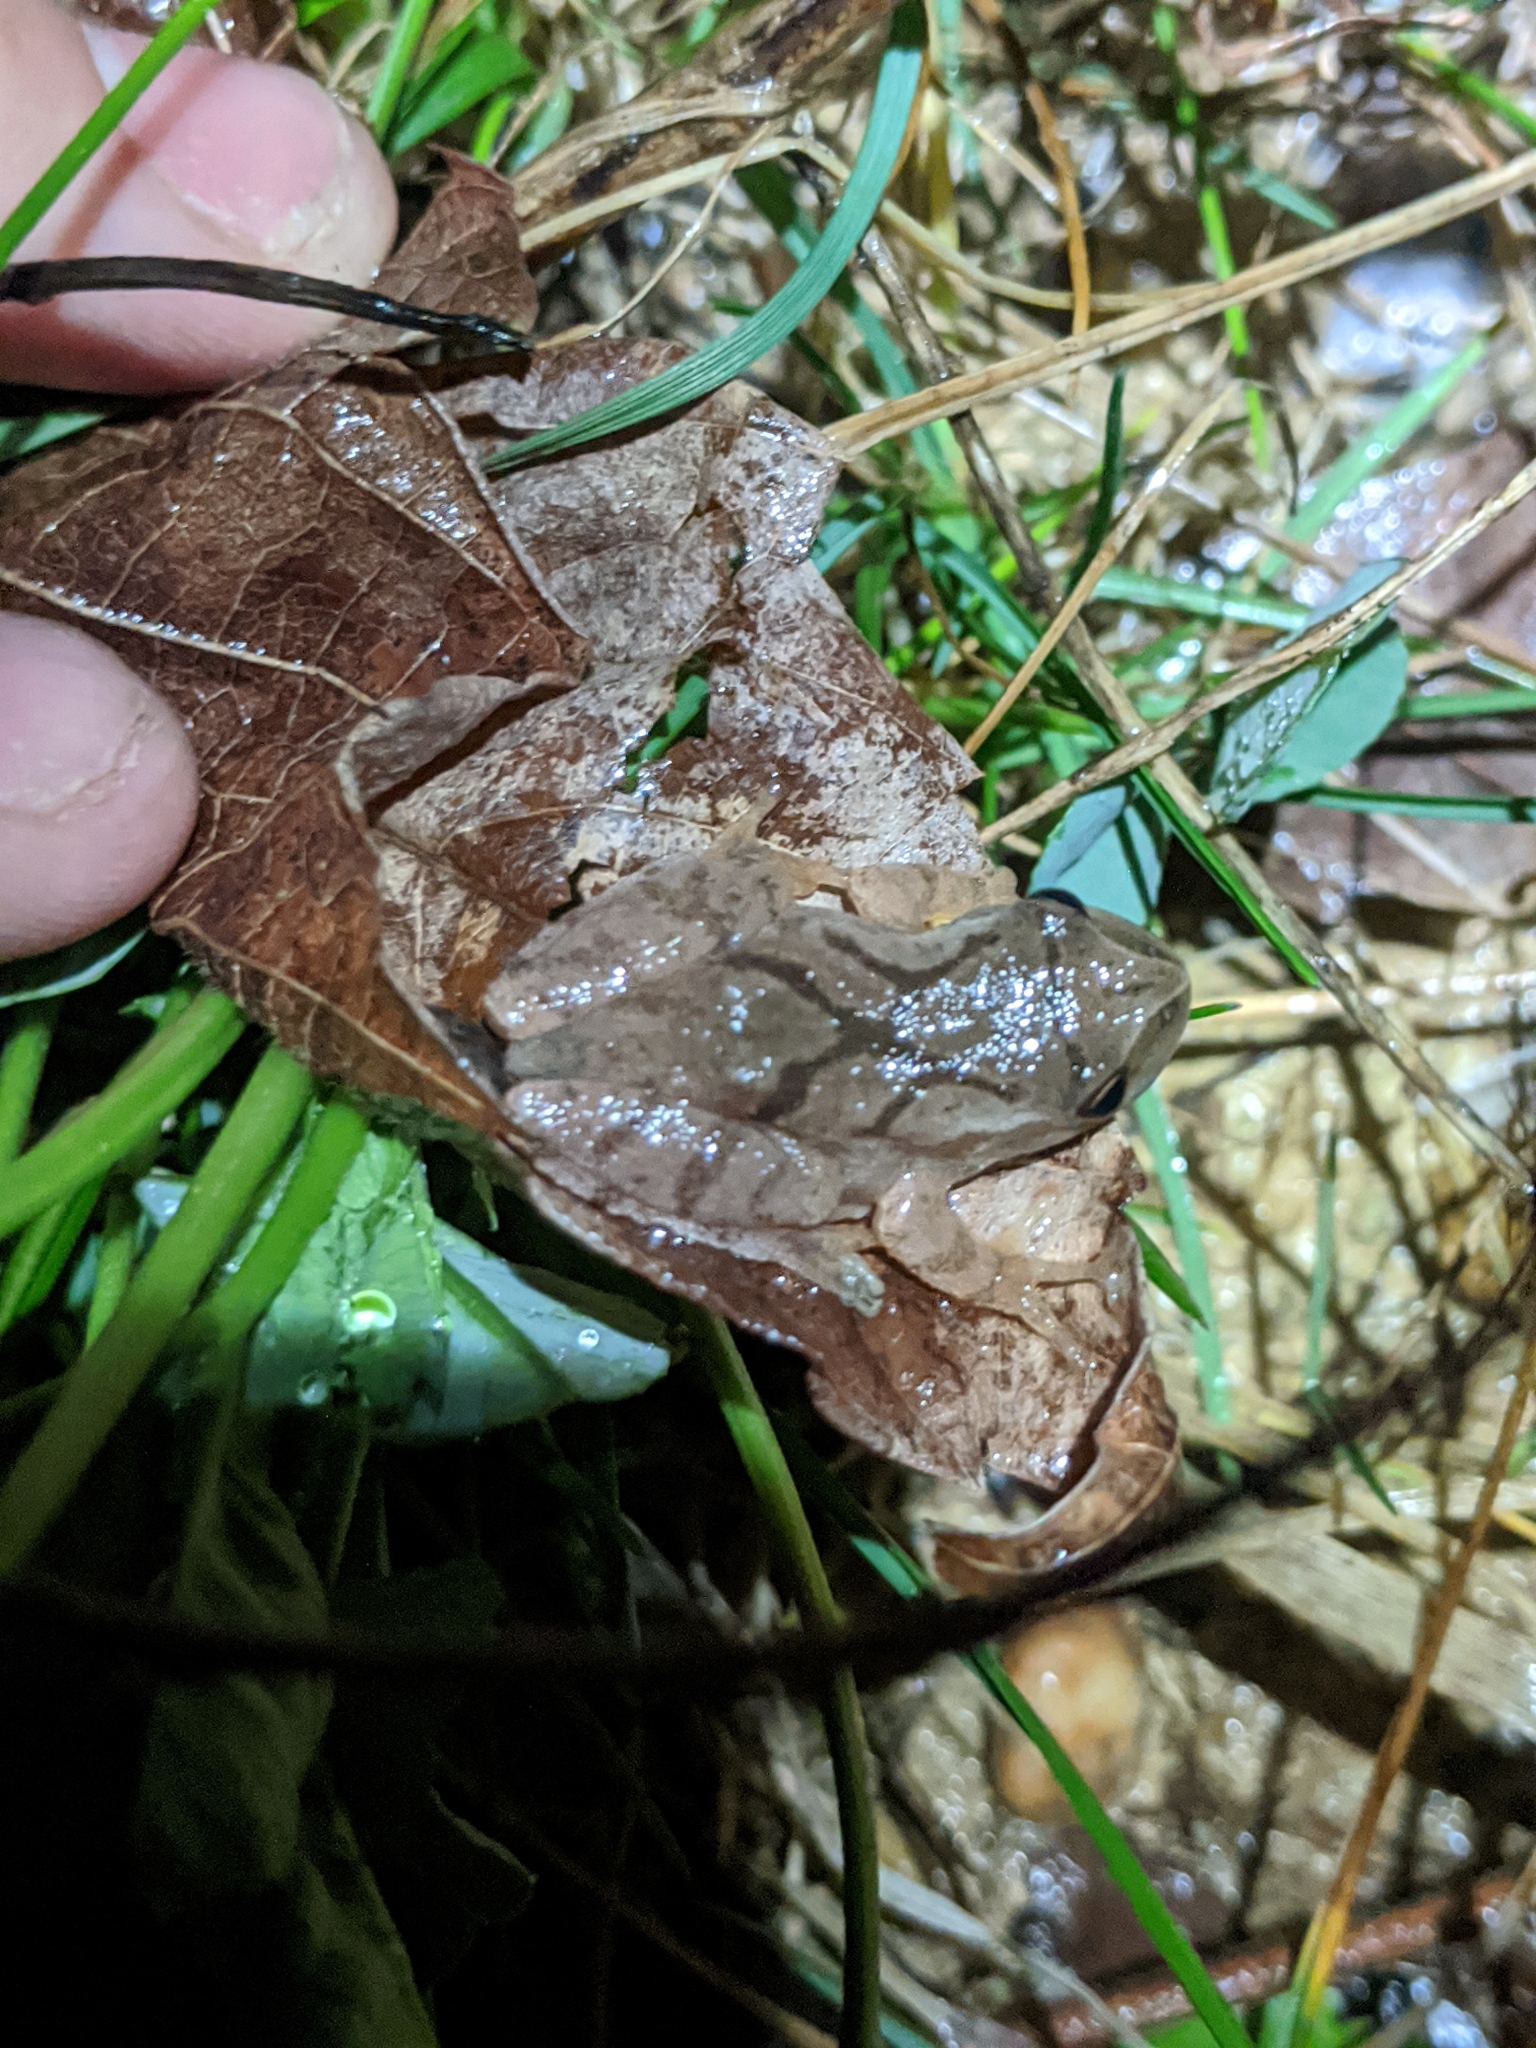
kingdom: Animalia
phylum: Chordata
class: Amphibia
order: Anura
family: Hylidae
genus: Pseudacris
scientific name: Pseudacris crucifer
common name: Spring peeper
